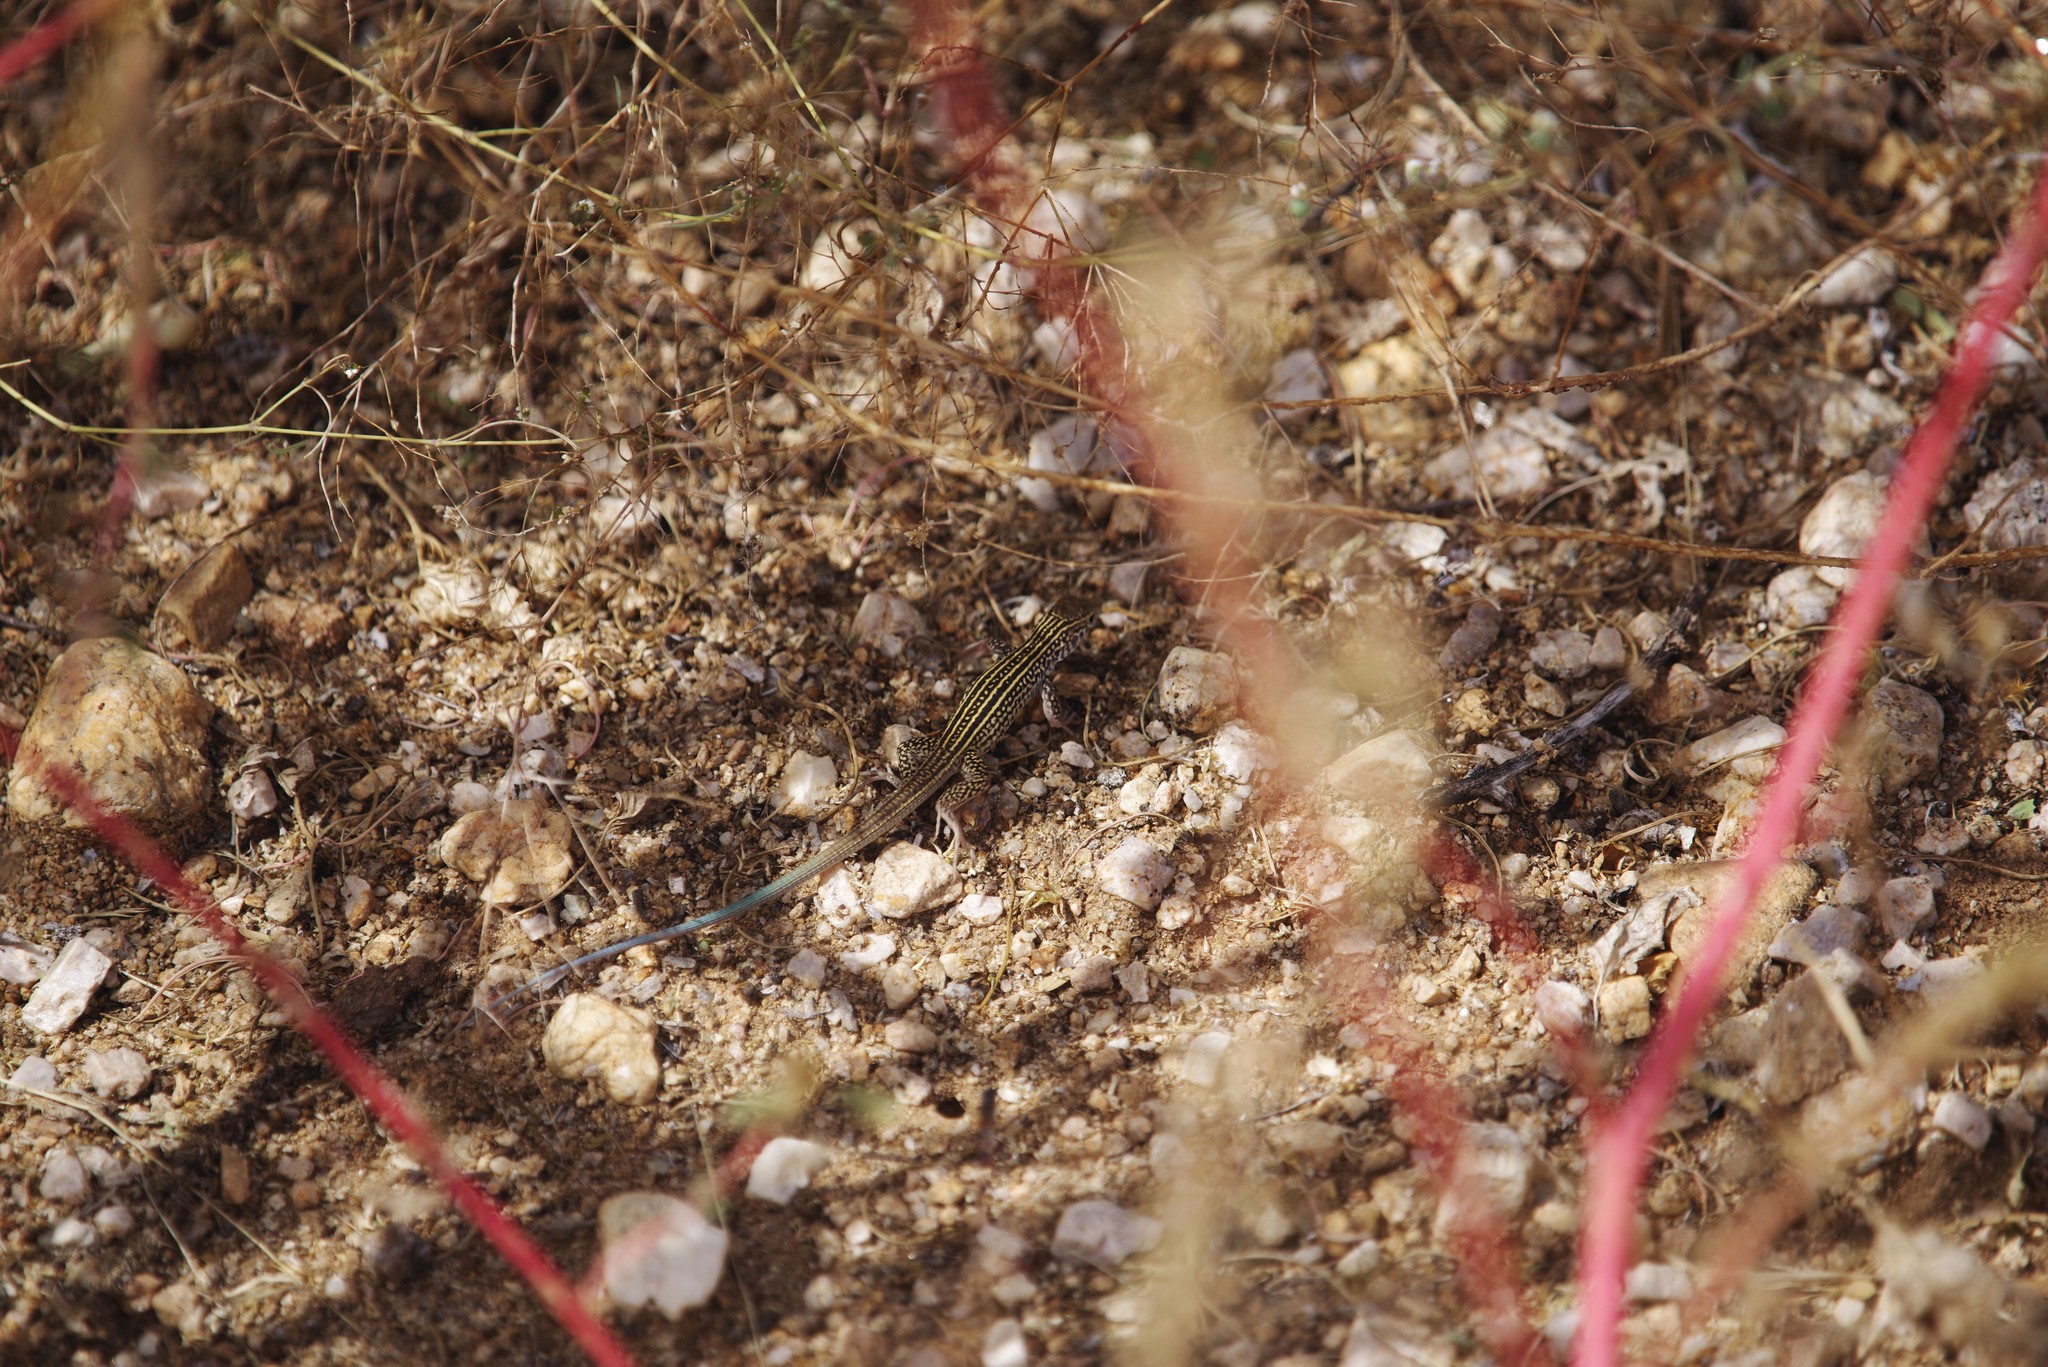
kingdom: Animalia
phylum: Chordata
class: Squamata
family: Teiidae
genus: Aspidoscelis
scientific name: Aspidoscelis tigris
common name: Tiger whiptail
